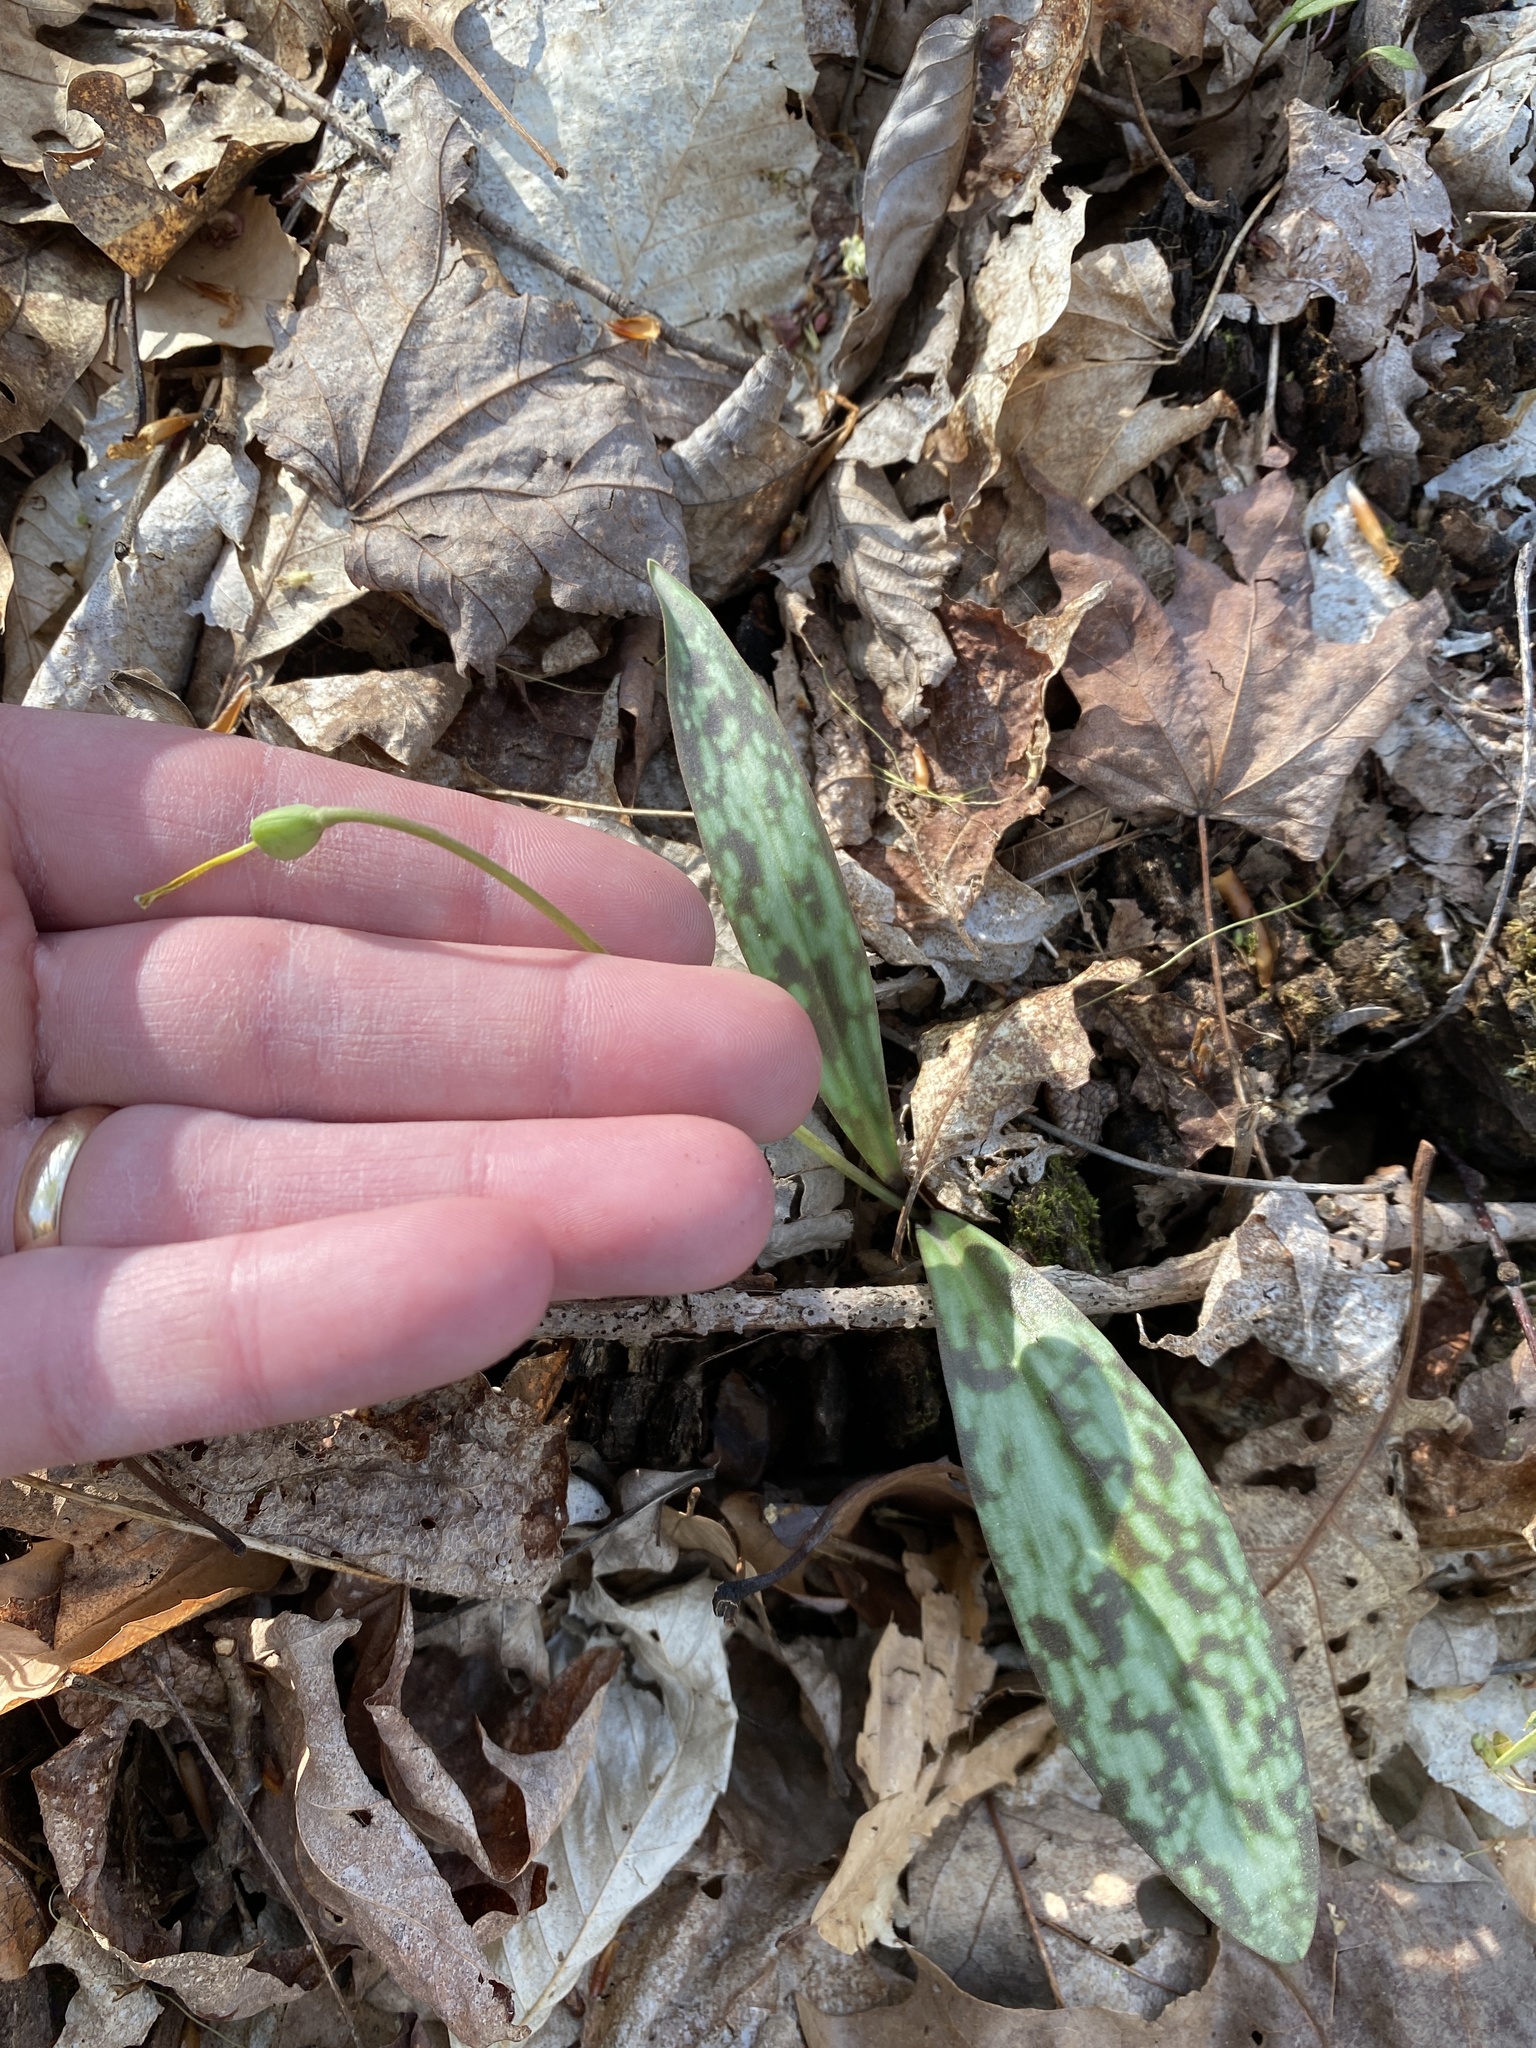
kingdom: Plantae
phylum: Tracheophyta
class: Liliopsida
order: Liliales
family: Liliaceae
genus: Erythronium
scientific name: Erythronium americanum
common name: Yellow adder's-tongue
